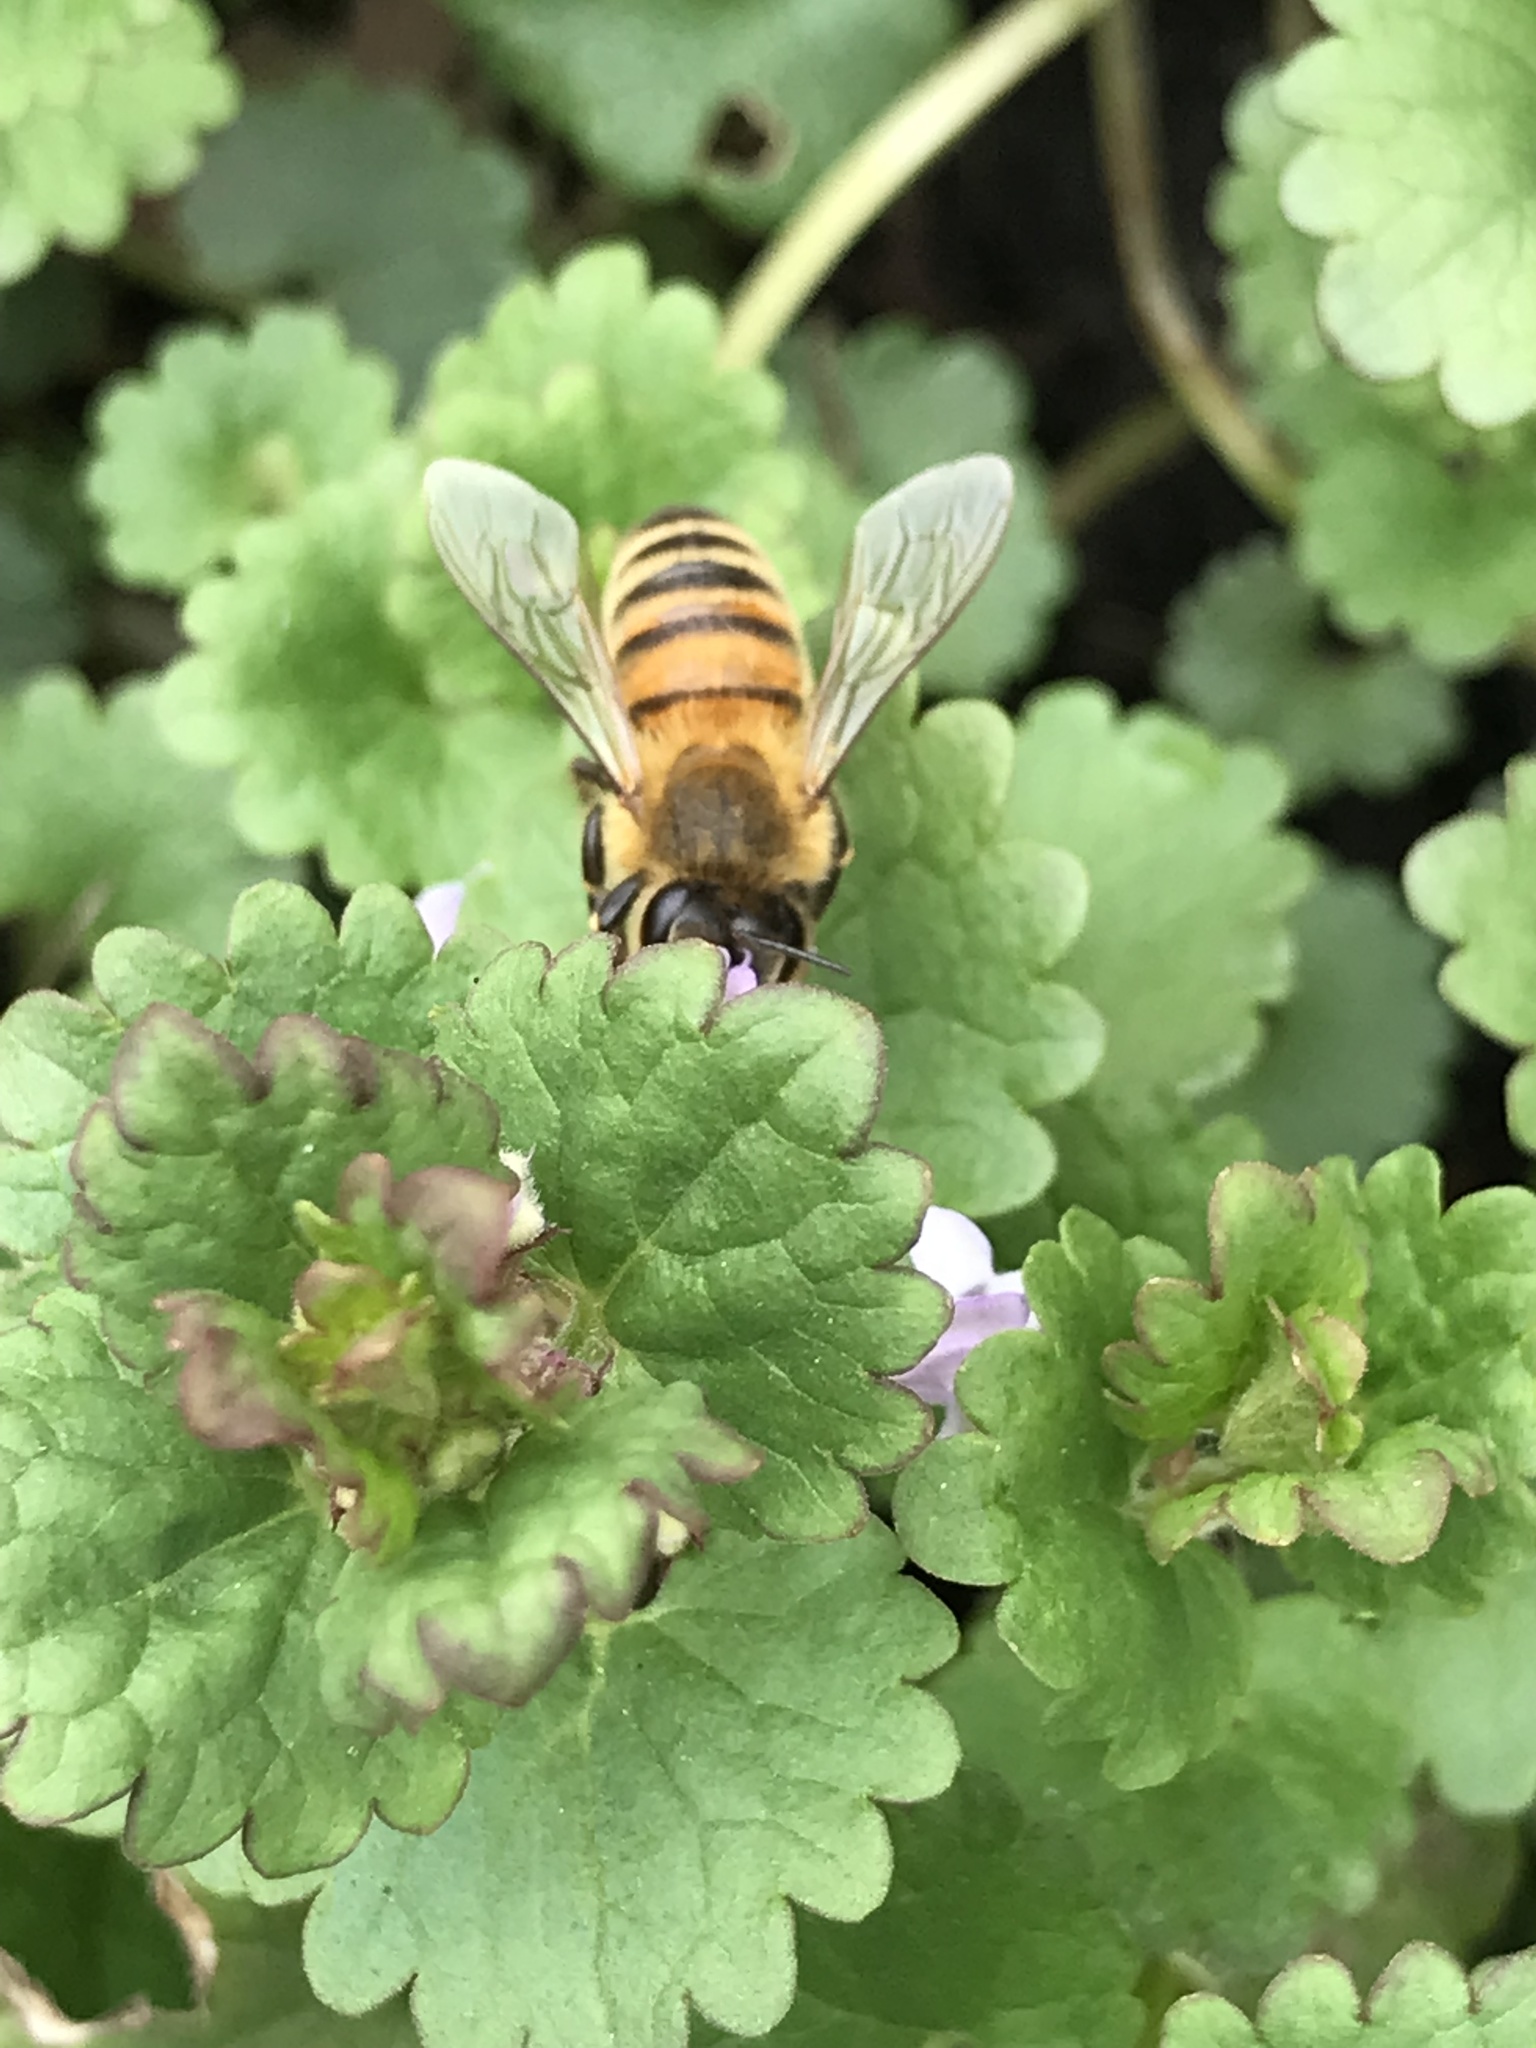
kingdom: Animalia
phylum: Arthropoda
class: Insecta
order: Hymenoptera
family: Apidae
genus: Apis
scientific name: Apis mellifera
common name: Honey bee
